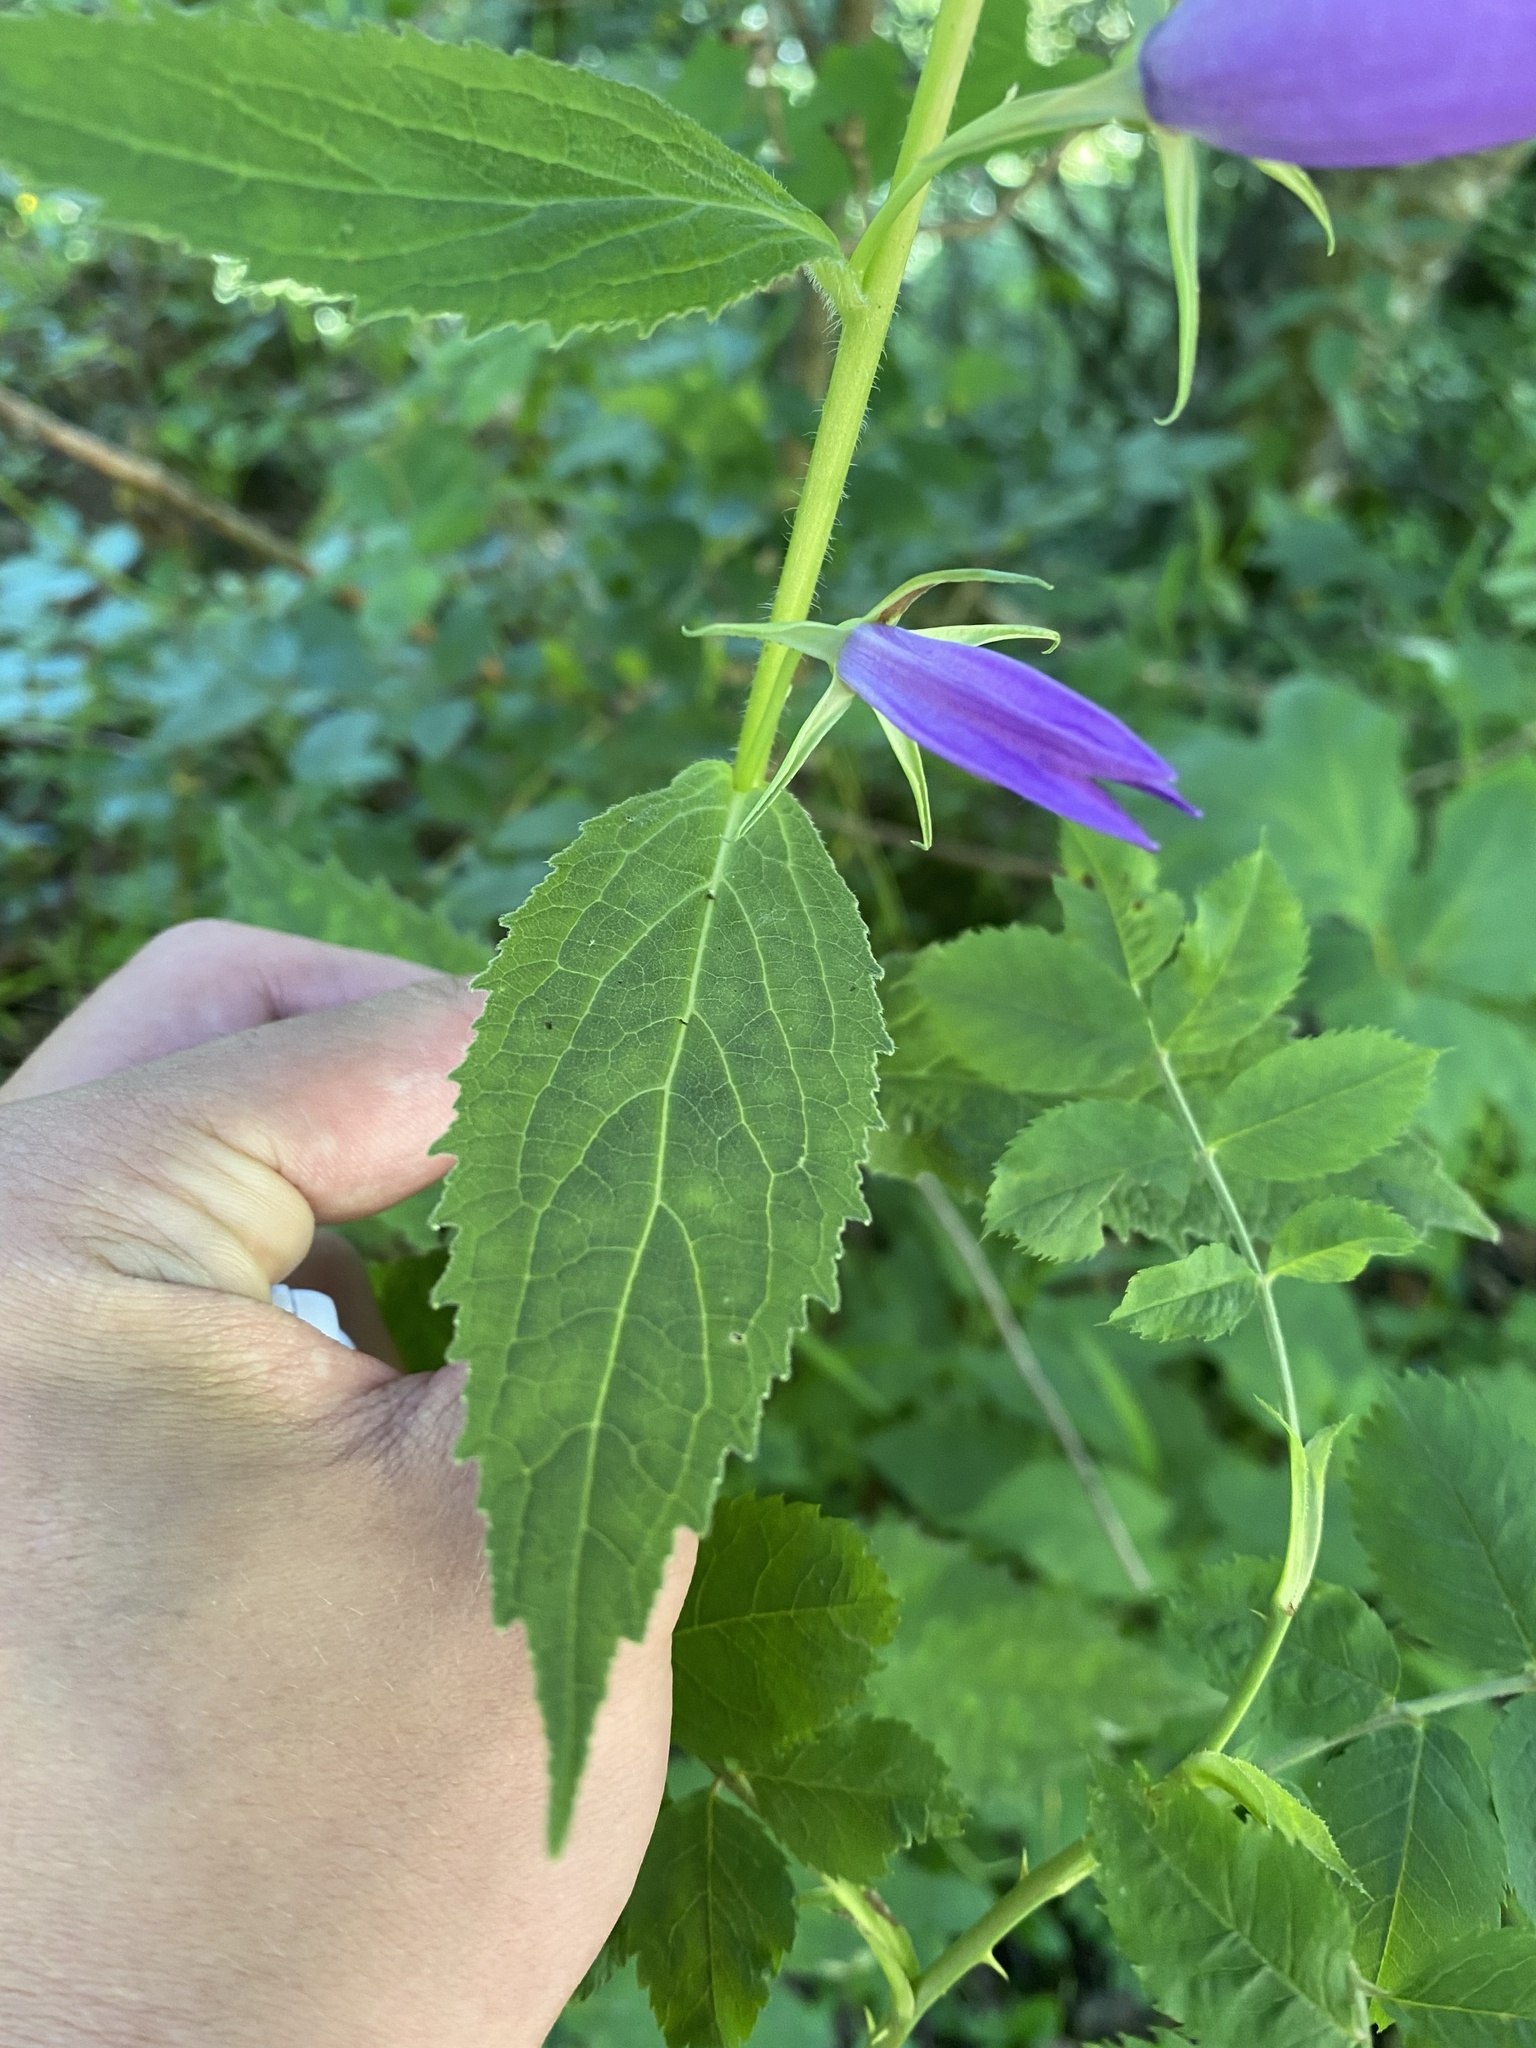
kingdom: Plantae
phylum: Tracheophyta
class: Magnoliopsida
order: Asterales
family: Campanulaceae
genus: Campanula
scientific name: Campanula latifolia
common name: Giant bellflower
